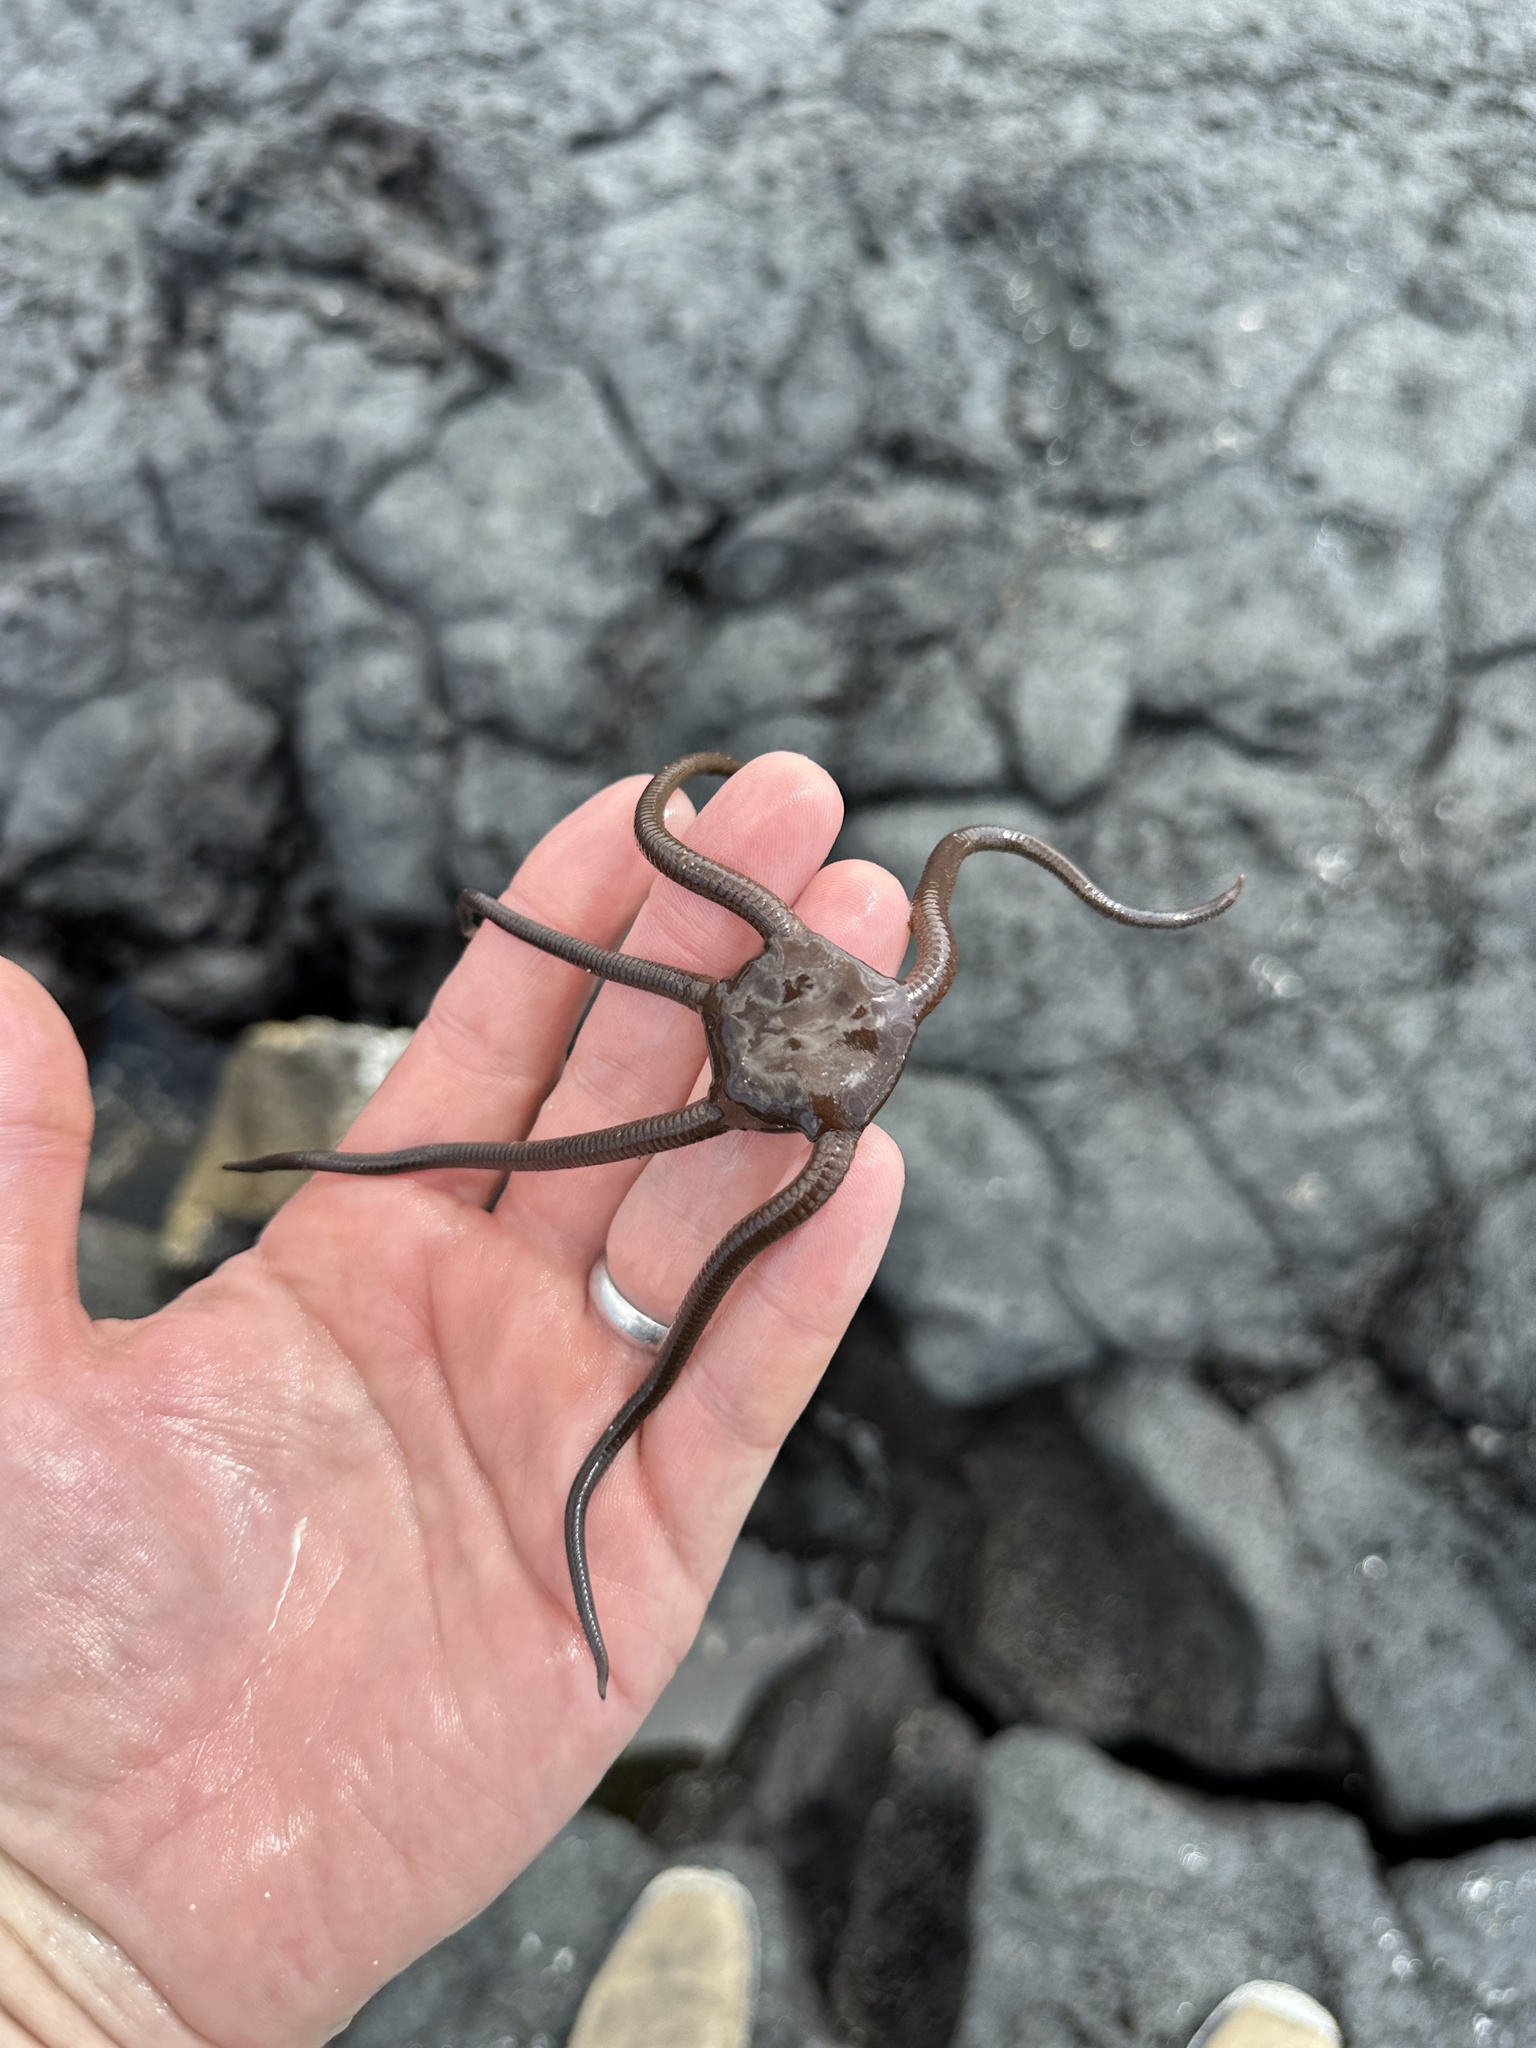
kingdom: Animalia
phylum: Echinodermata
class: Ophiuroidea
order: Ophiacanthida
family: Ophiodermatidae
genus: Ophioderma
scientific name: Ophioderma teres
